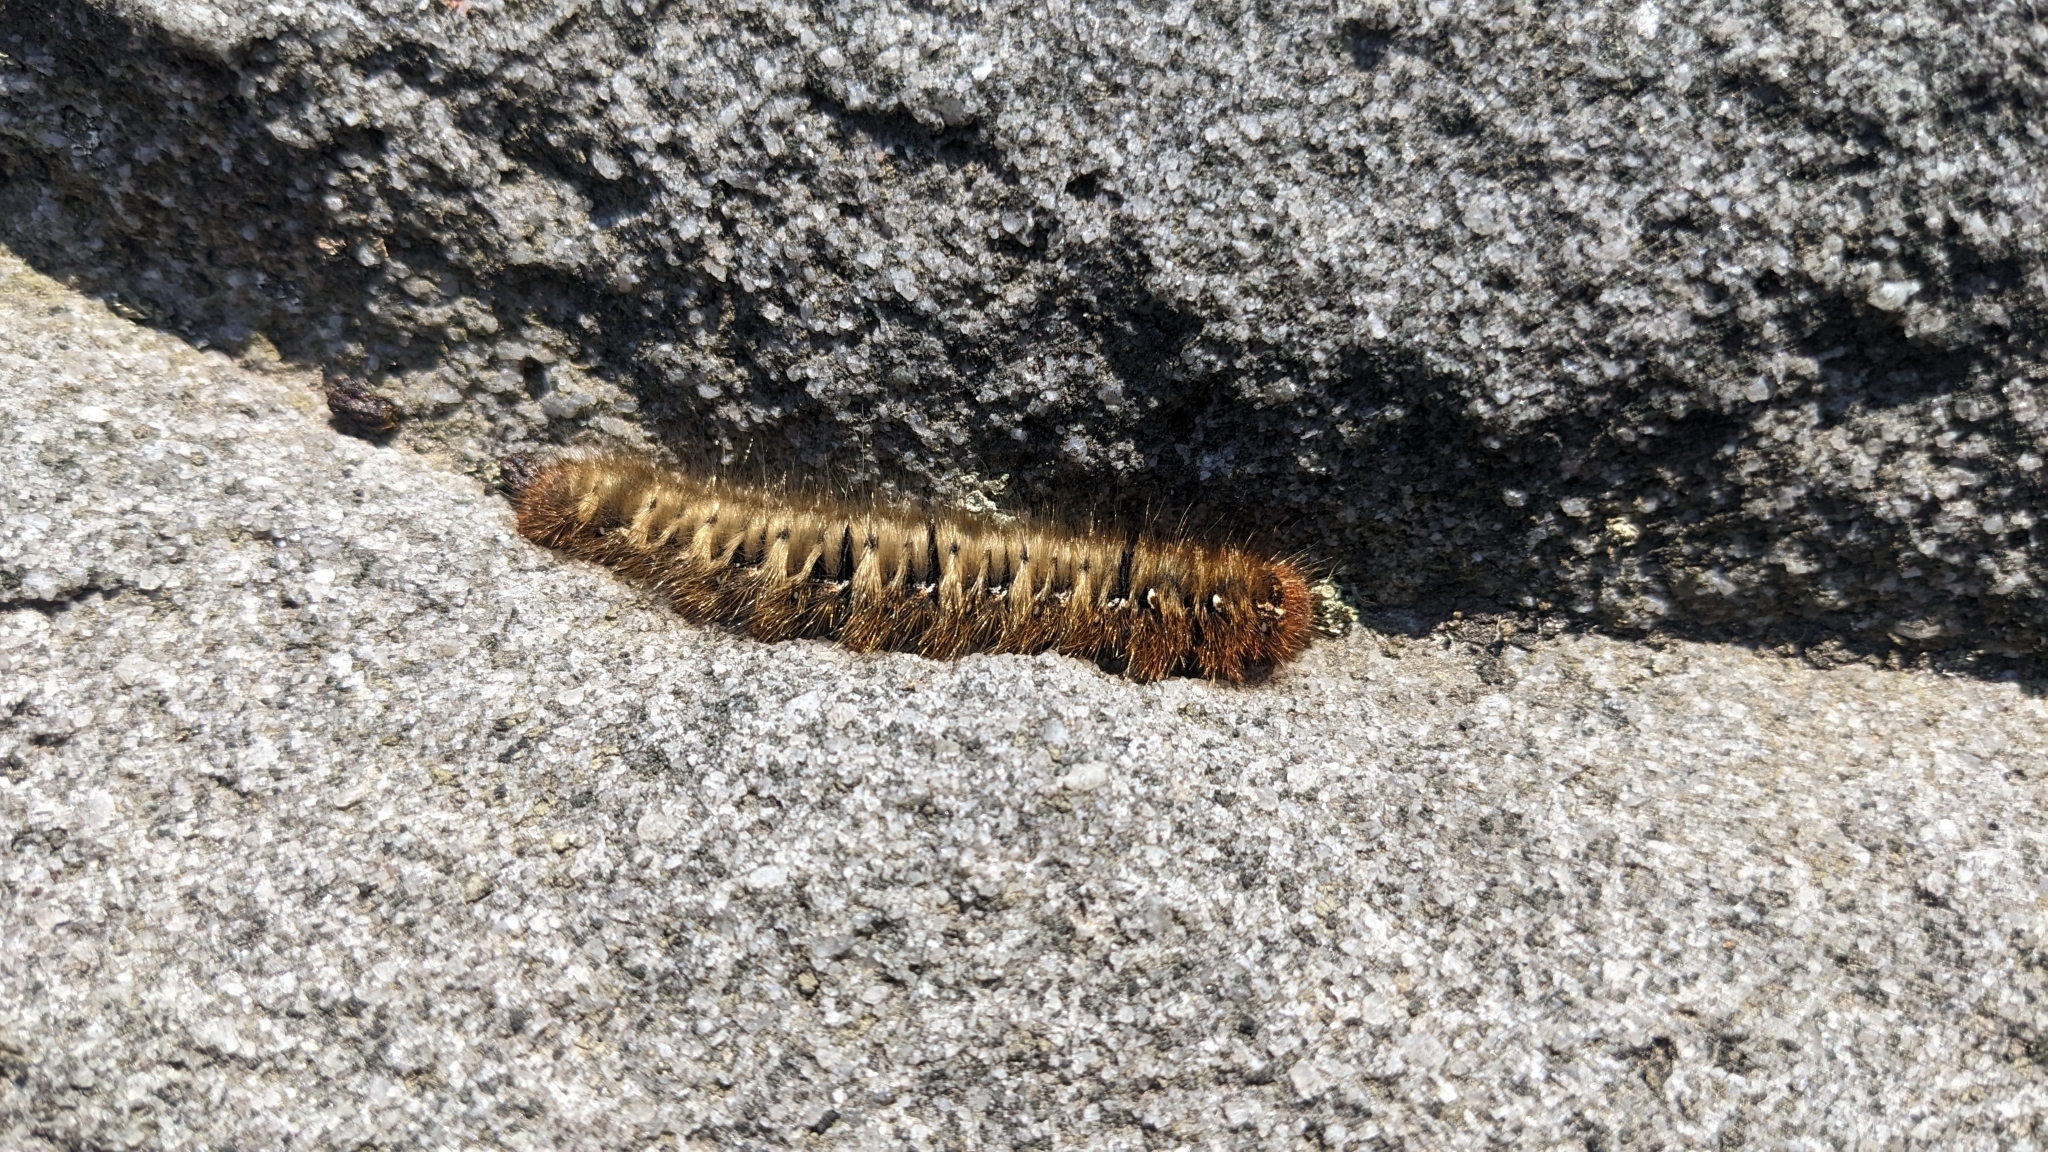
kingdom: Animalia
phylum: Arthropoda
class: Insecta
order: Lepidoptera
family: Lasiocampidae
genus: Lasiocampa
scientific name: Lasiocampa quercus
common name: Oak eggar
